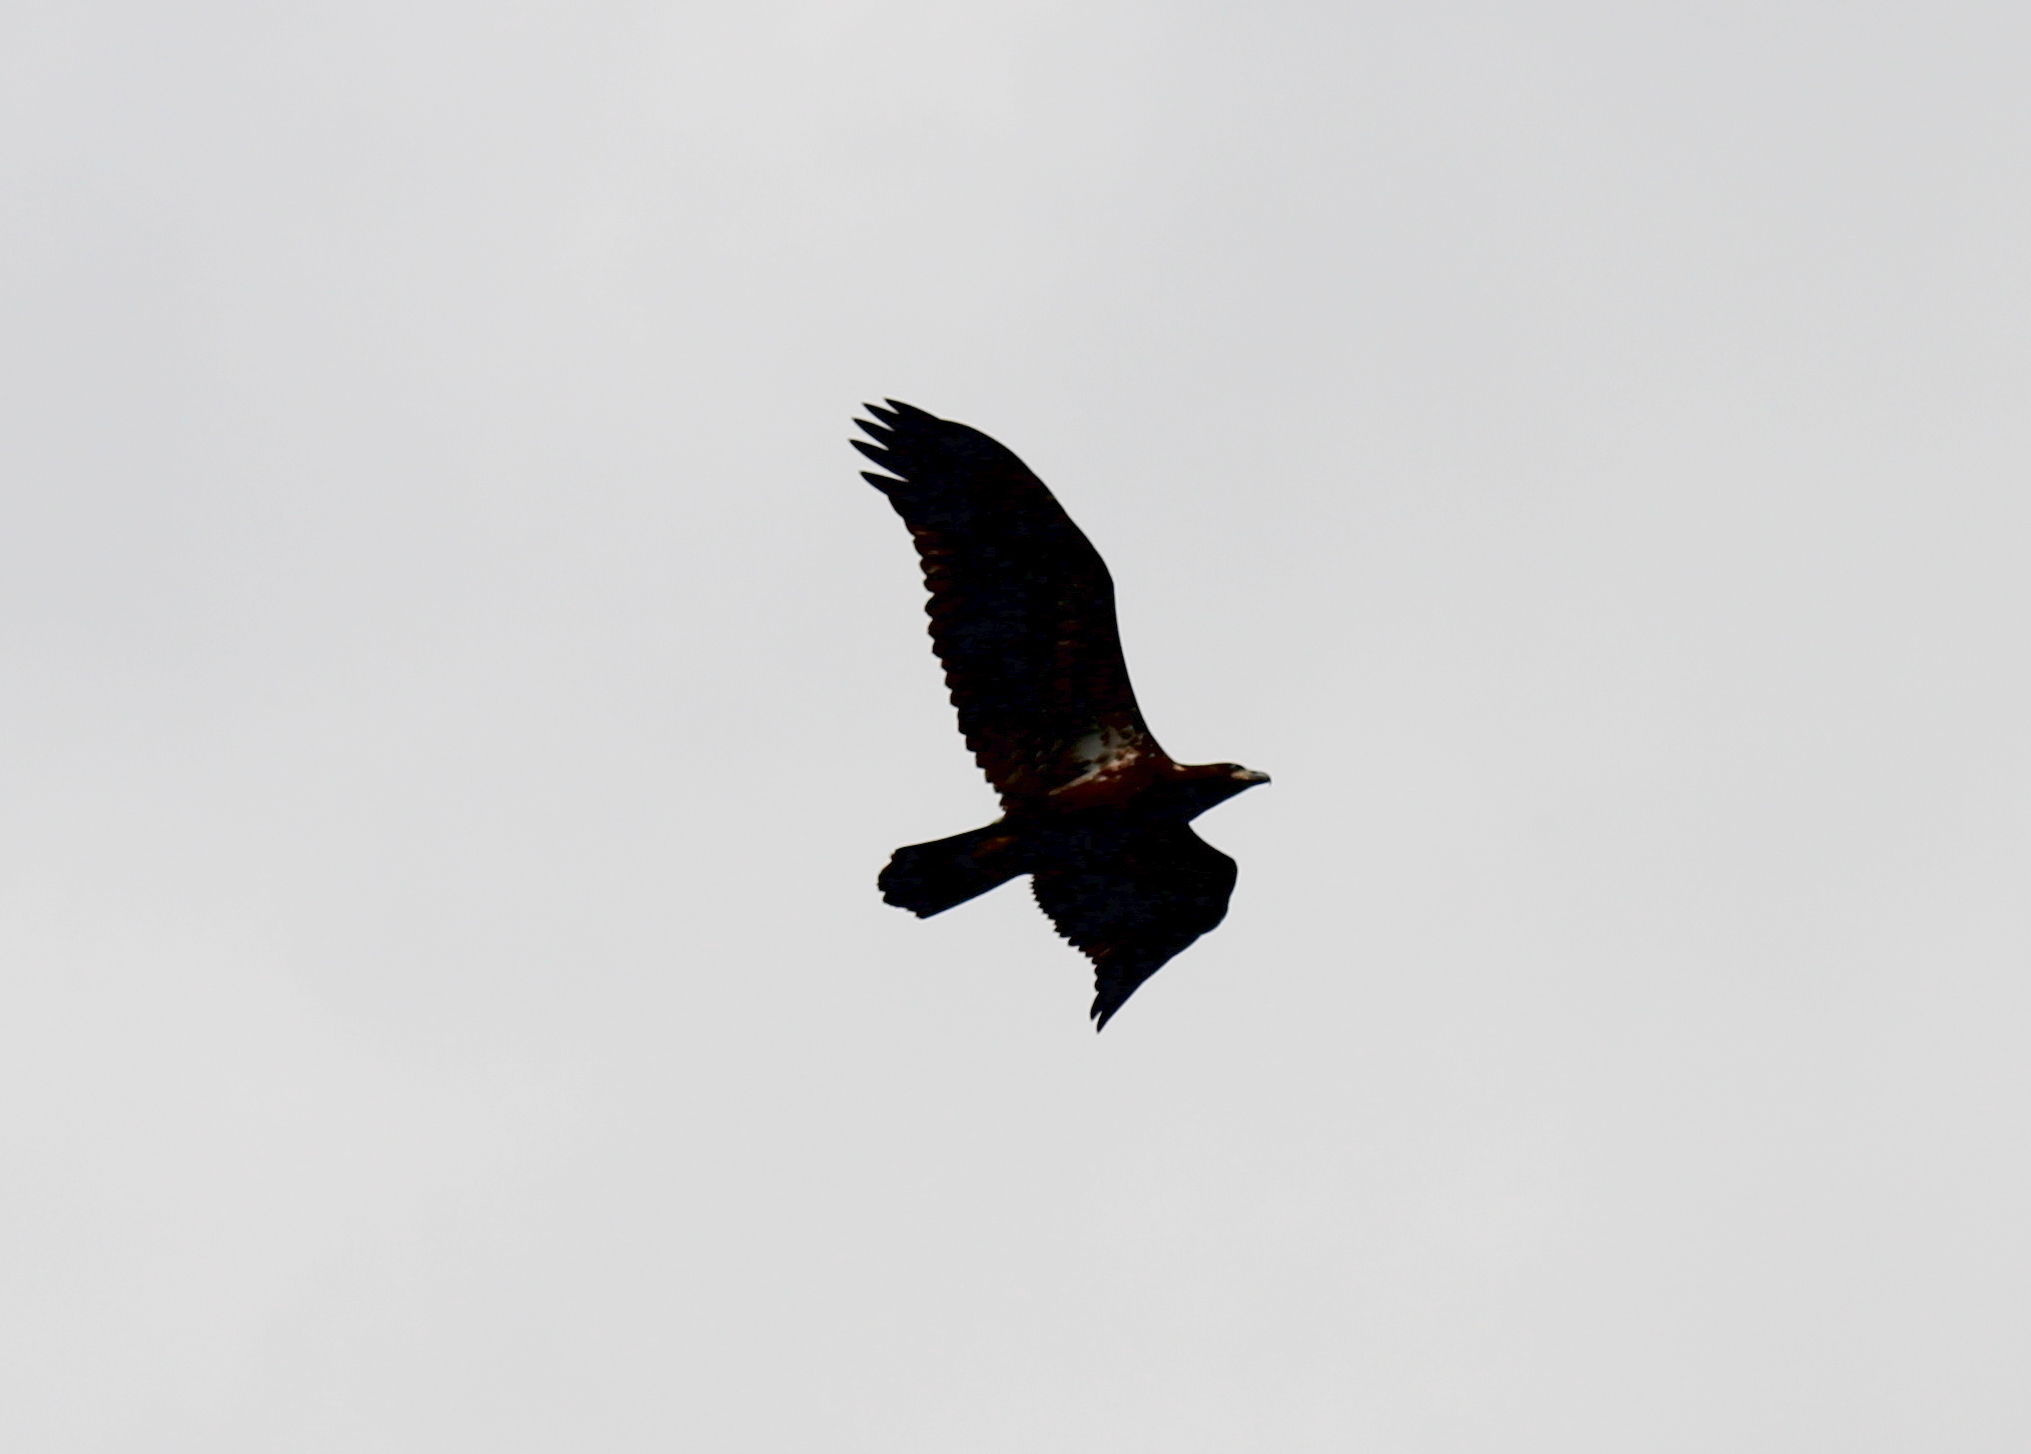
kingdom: Animalia
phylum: Chordata
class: Aves
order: Accipitriformes
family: Accipitridae
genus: Haliaeetus
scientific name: Haliaeetus leucocephalus
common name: Bald eagle
